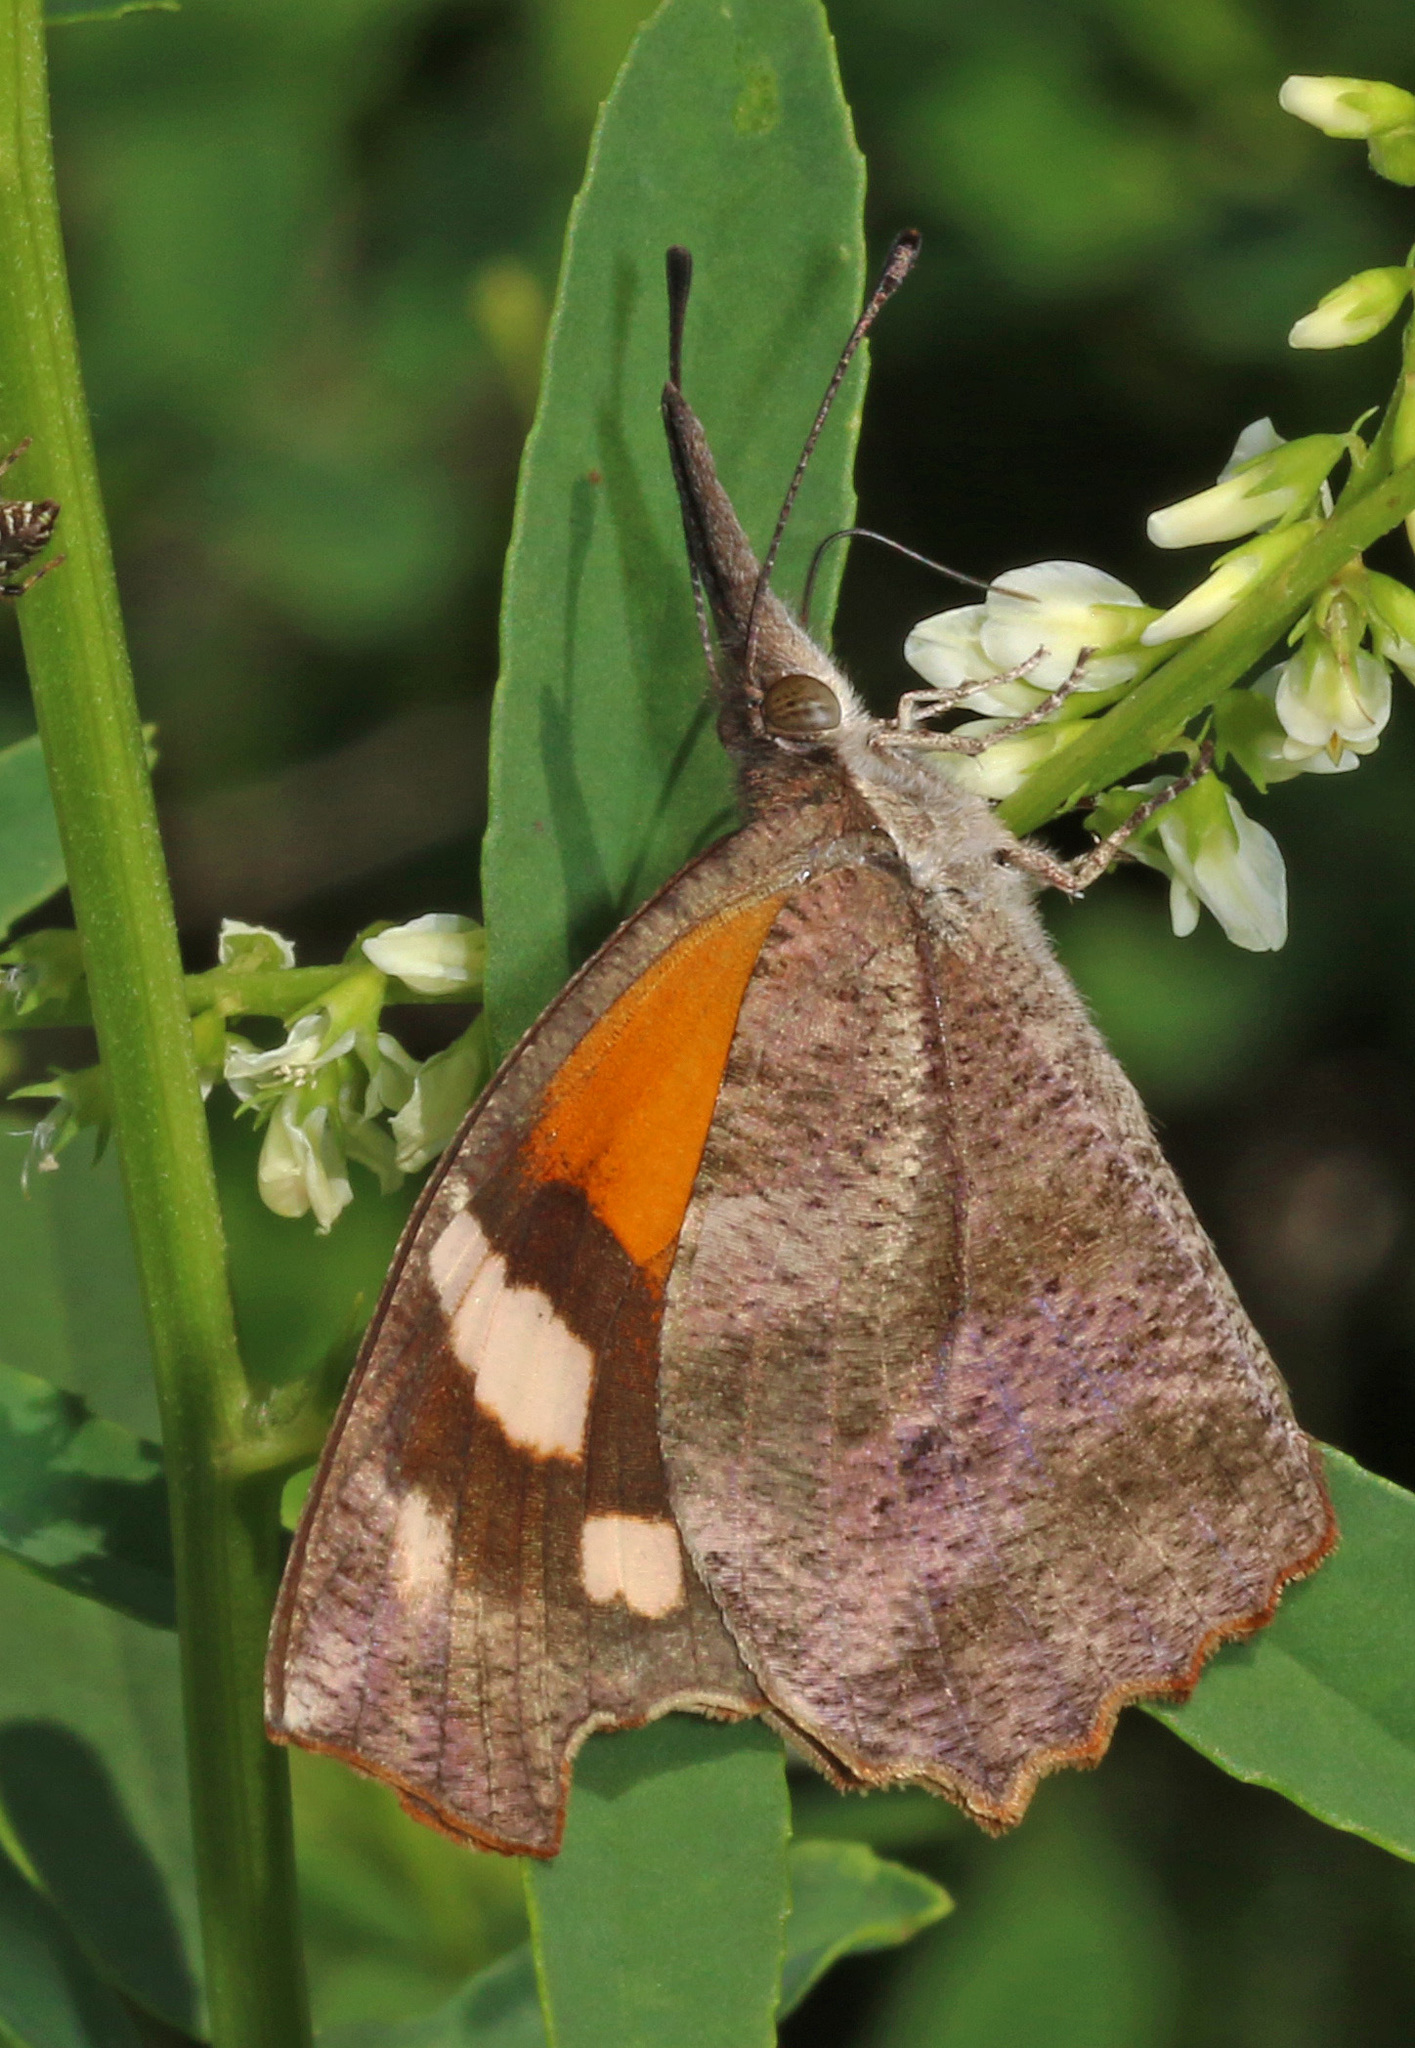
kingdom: Animalia
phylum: Arthropoda
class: Insecta
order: Lepidoptera
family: Nymphalidae
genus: Libytheana
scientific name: Libytheana carinenta
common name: American snout
